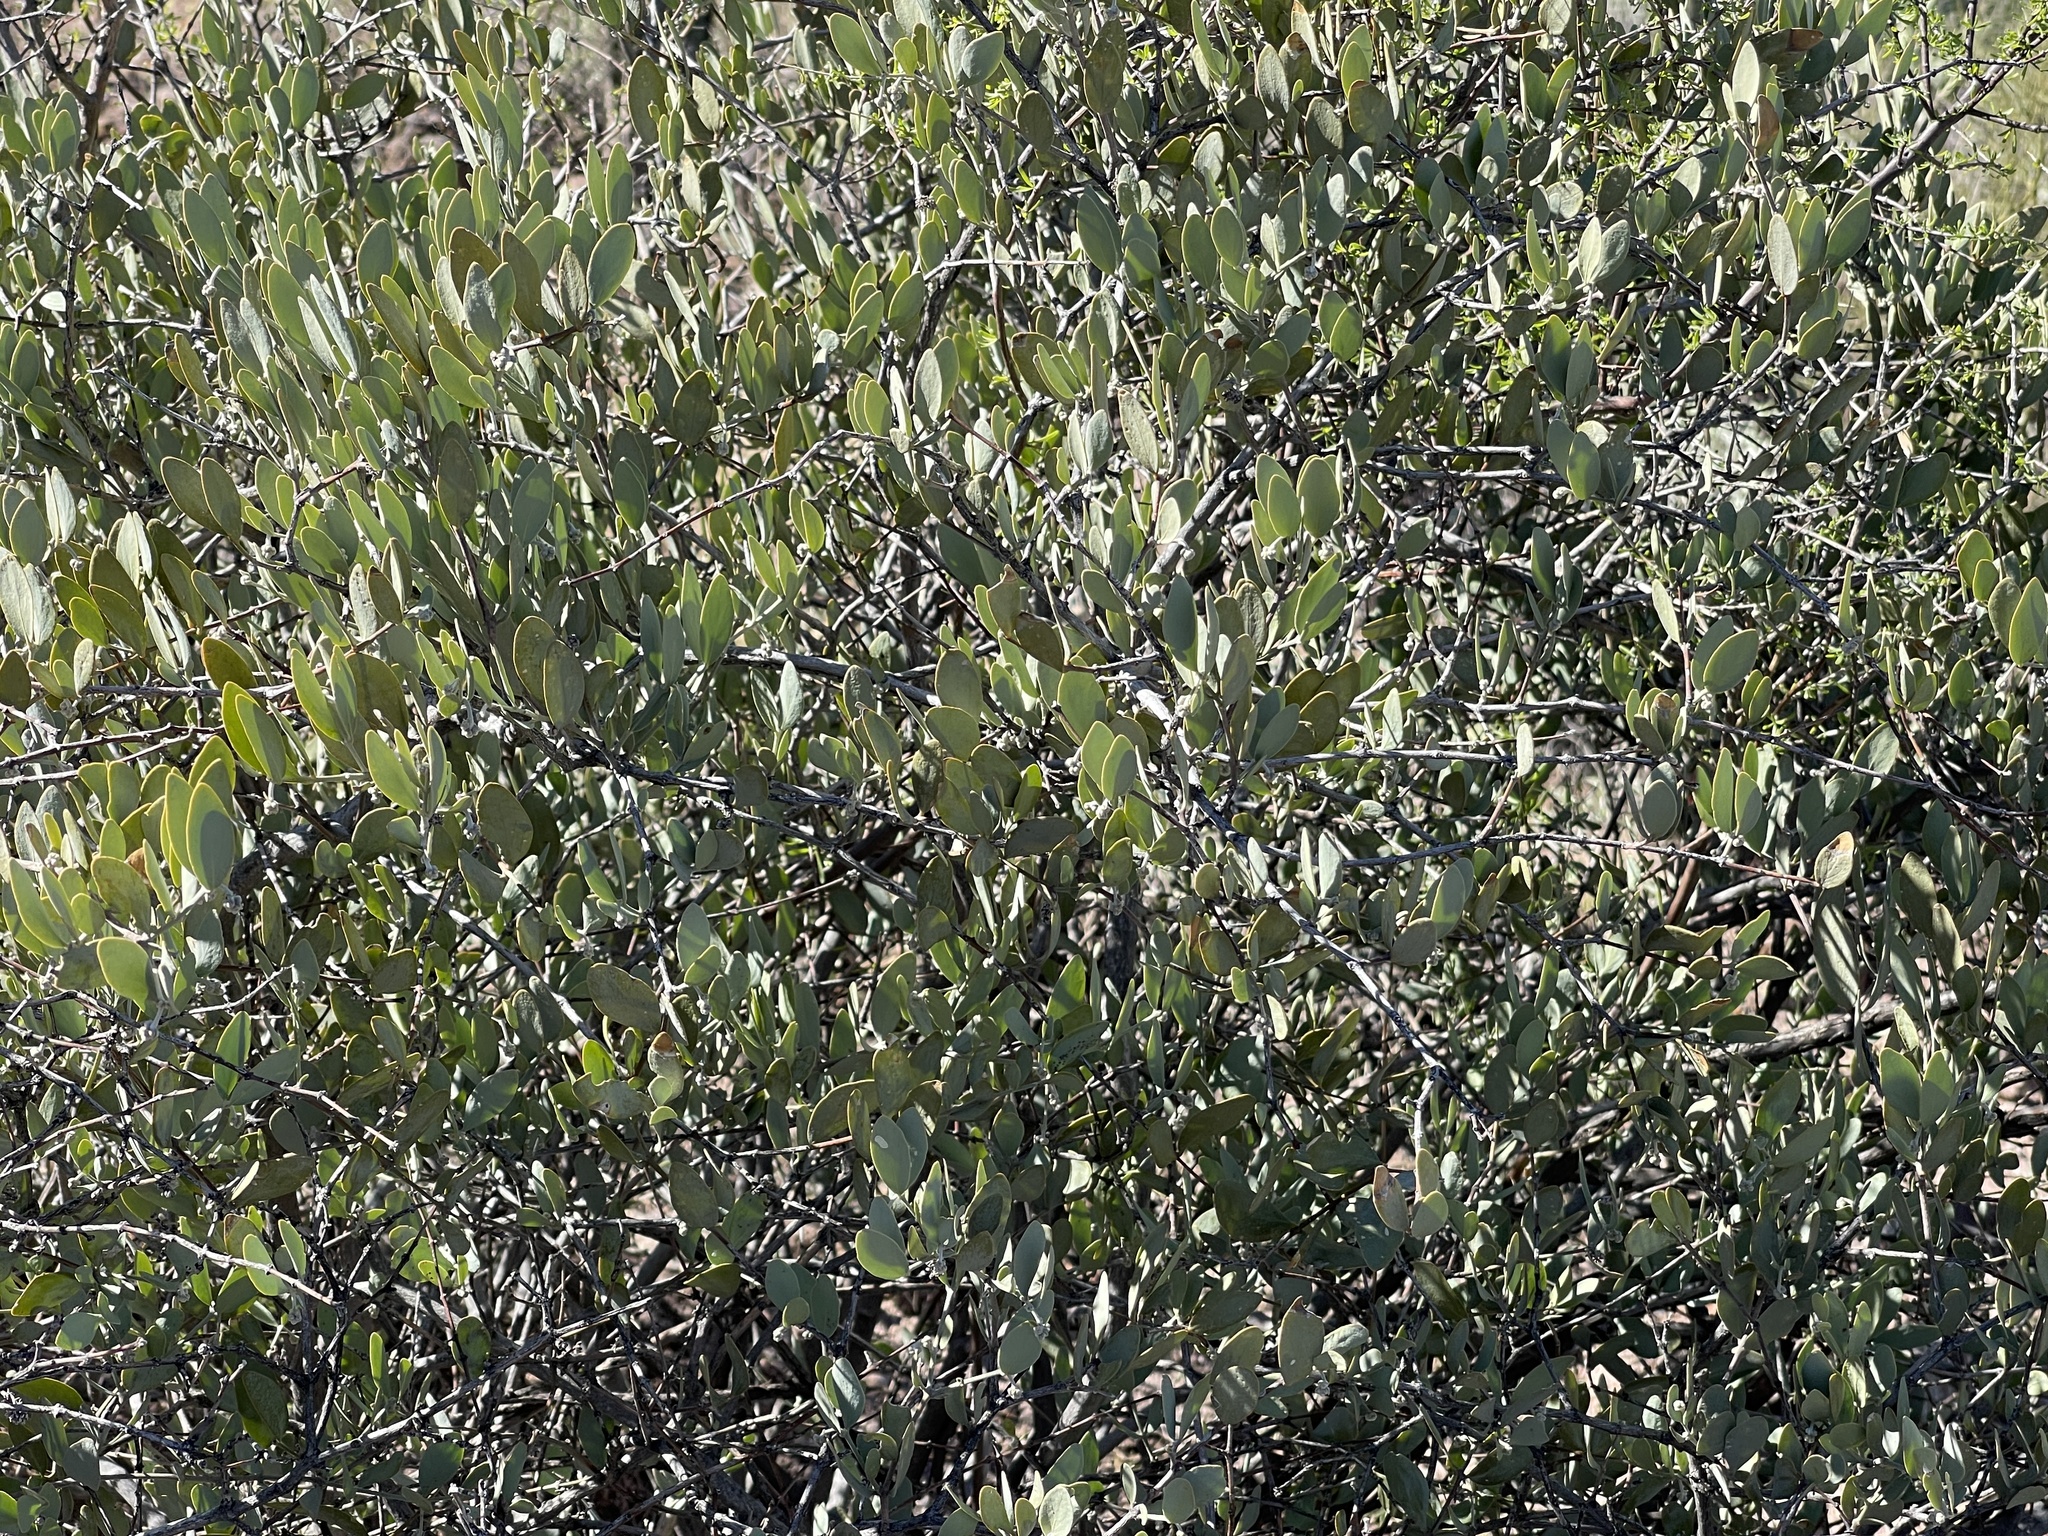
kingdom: Plantae
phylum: Tracheophyta
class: Magnoliopsida
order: Caryophyllales
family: Simmondsiaceae
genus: Simmondsia
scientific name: Simmondsia chinensis
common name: Jojoba
